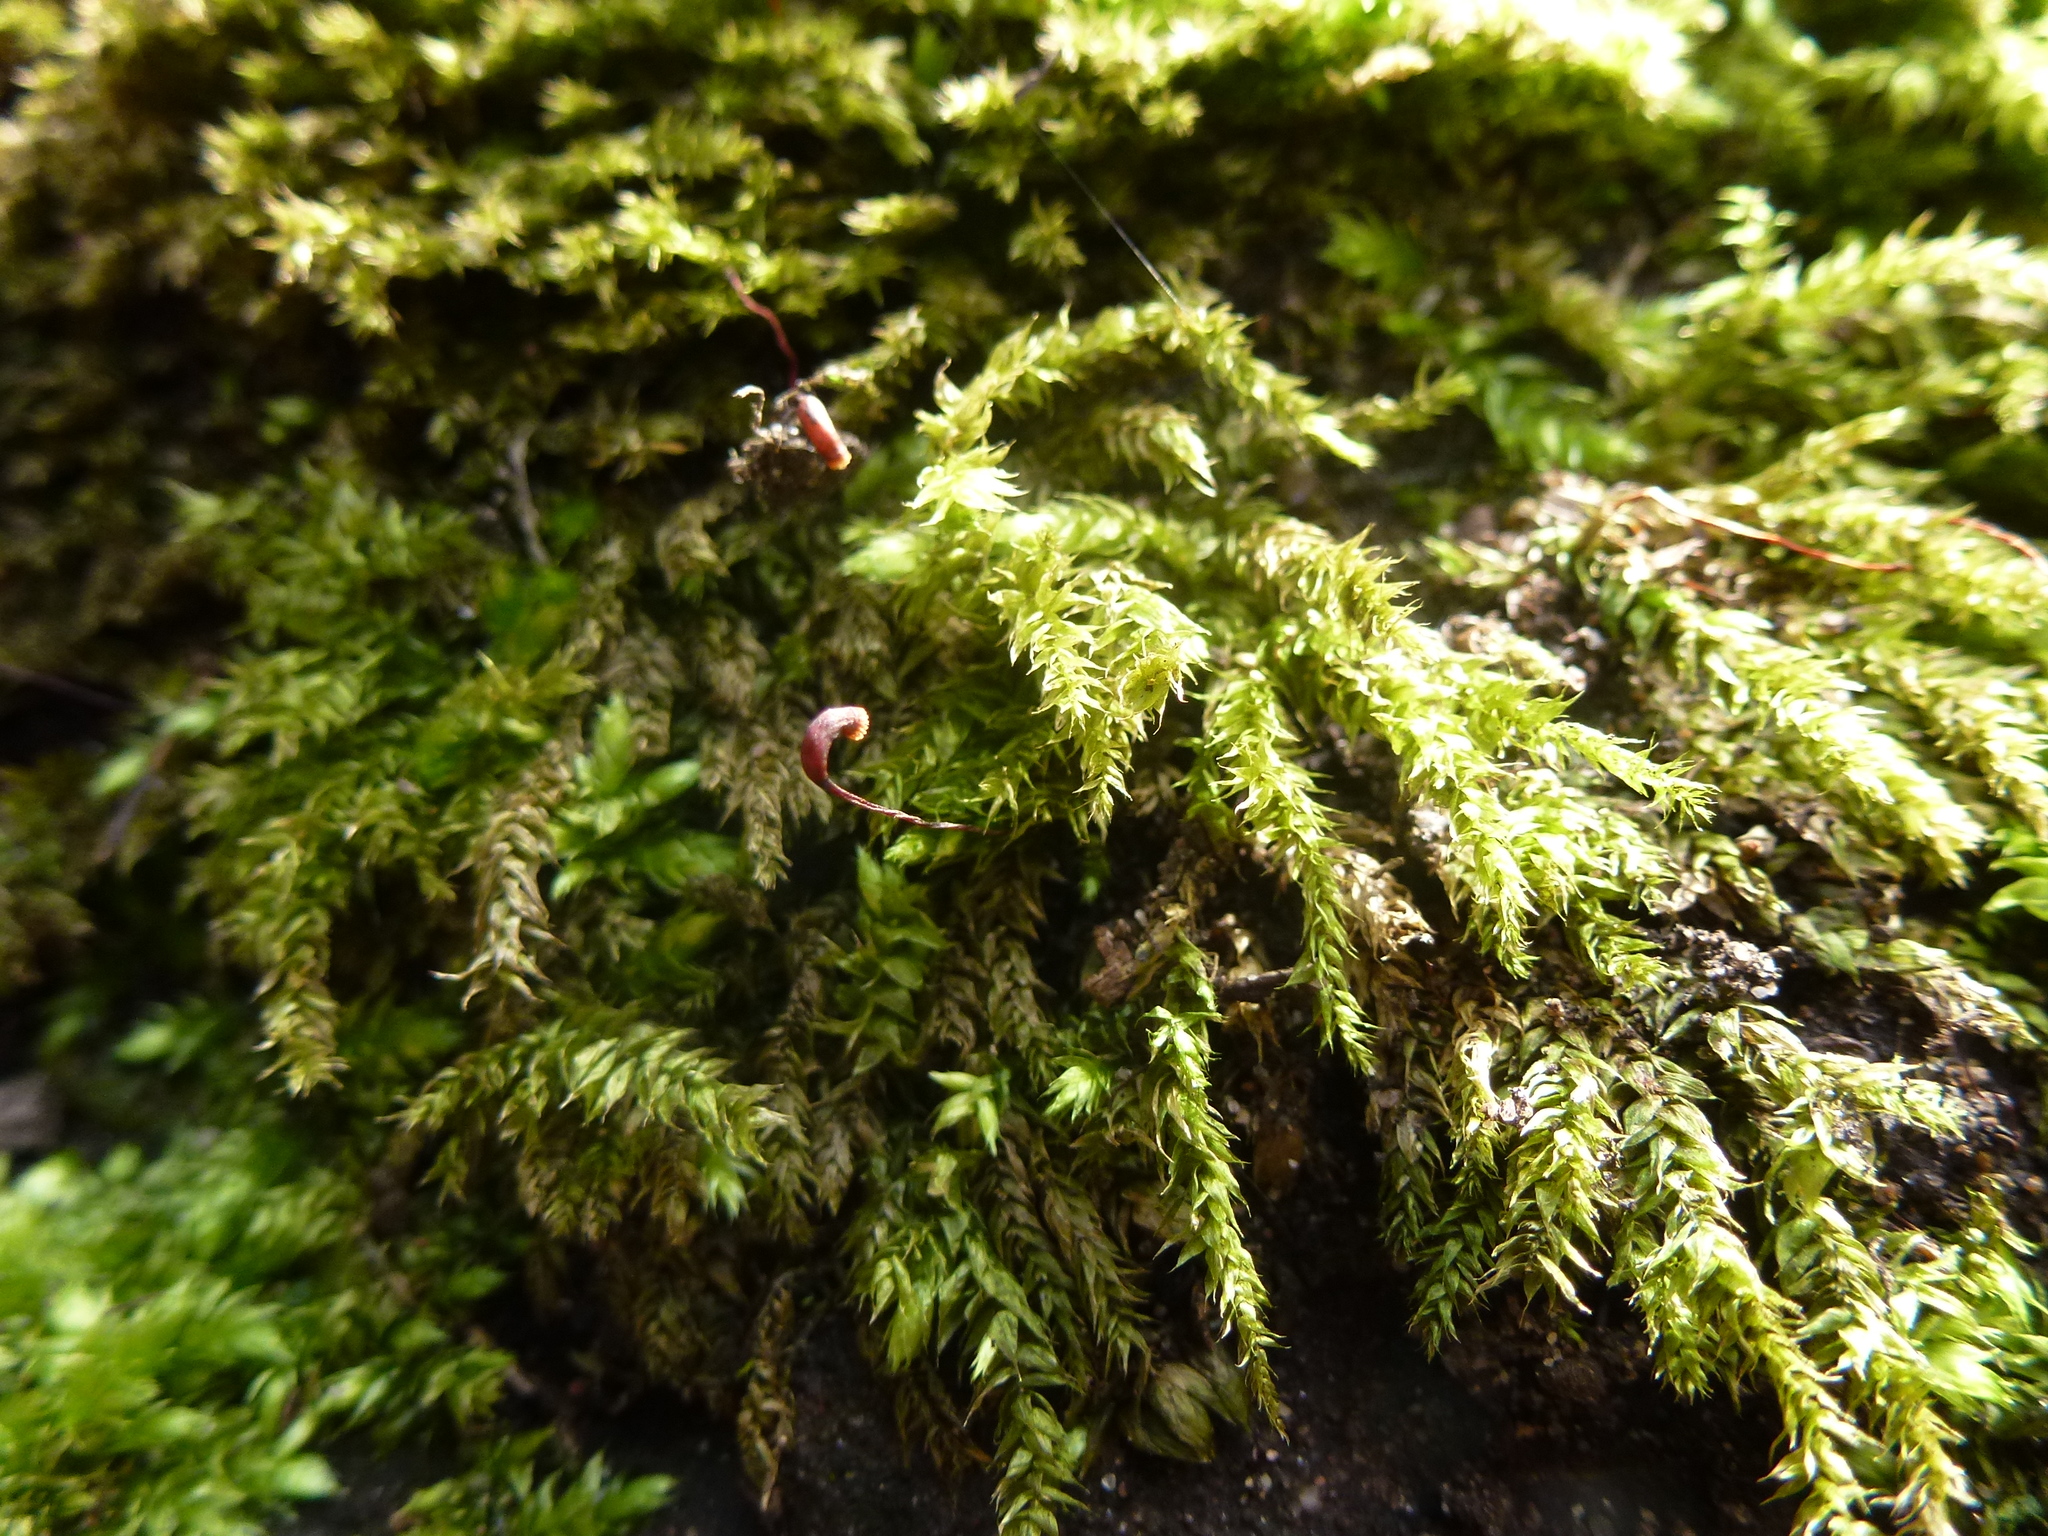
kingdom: Plantae
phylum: Bryophyta
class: Bryopsida
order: Hypnales
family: Brachytheciaceae
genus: Brachythecium
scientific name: Brachythecium rutabulum
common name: Rough-stalked feather-moss
